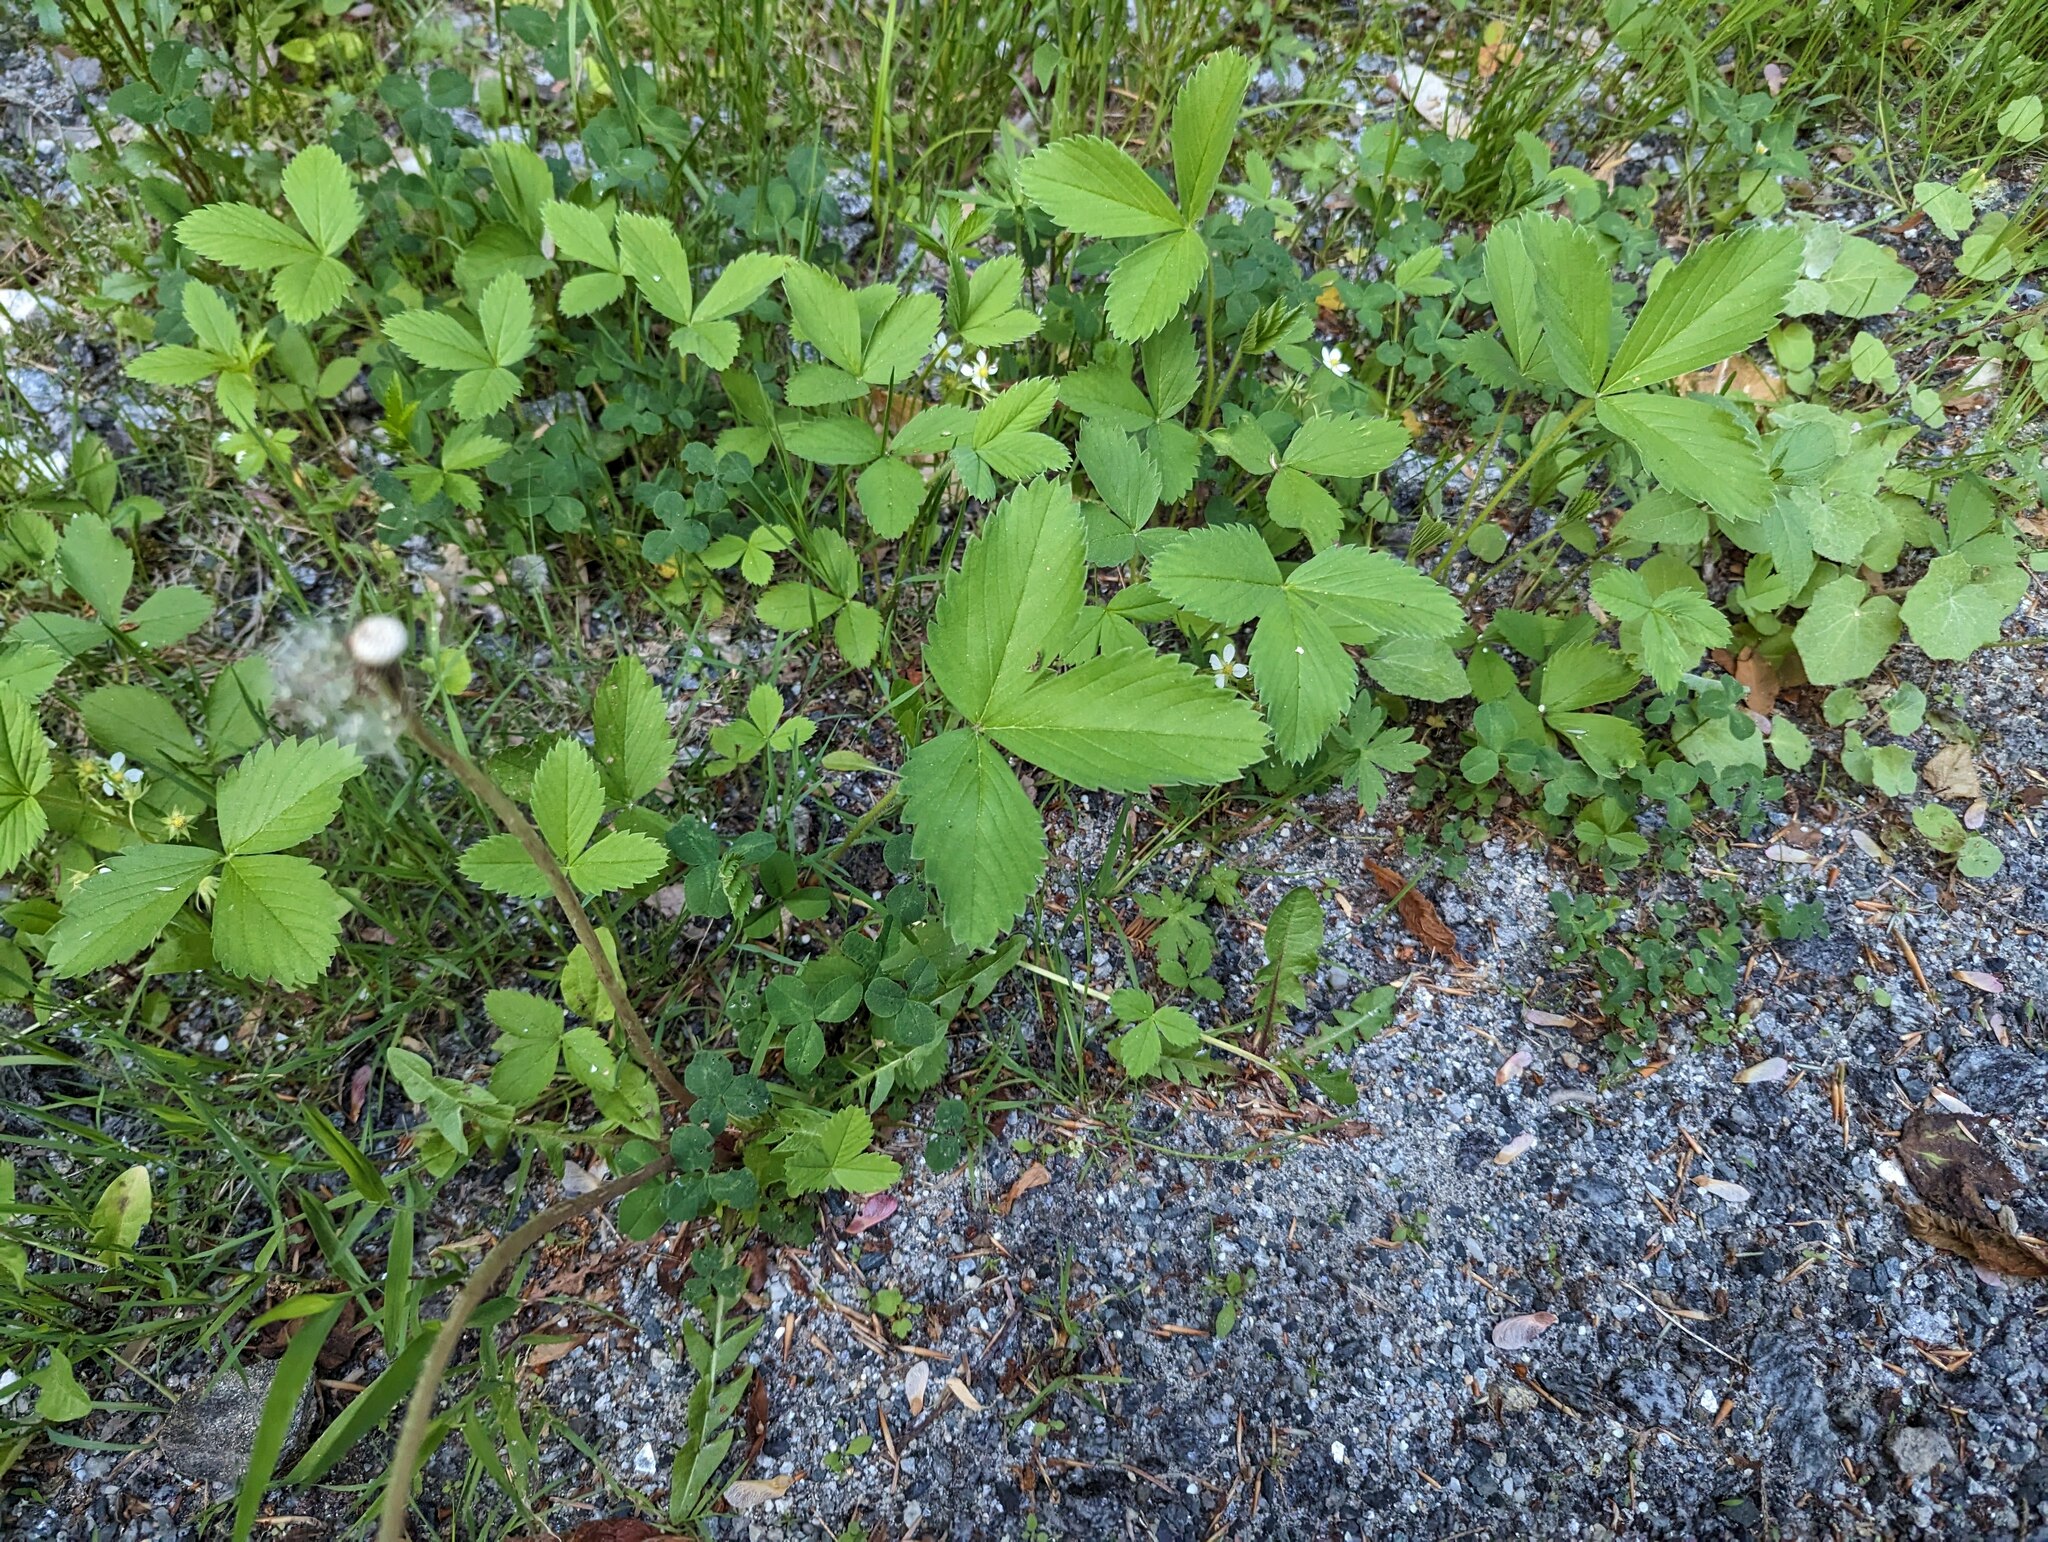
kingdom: Plantae
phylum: Tracheophyta
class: Magnoliopsida
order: Rosales
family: Rosaceae
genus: Fragaria
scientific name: Fragaria virginiana
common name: Thickleaved wild strawberry
